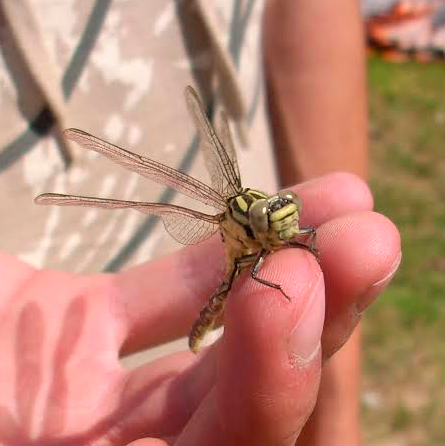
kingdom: Animalia
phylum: Arthropoda
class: Insecta
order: Odonata
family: Gomphidae
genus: Stylurus
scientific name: Stylurus flavipes
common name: River clubtail
